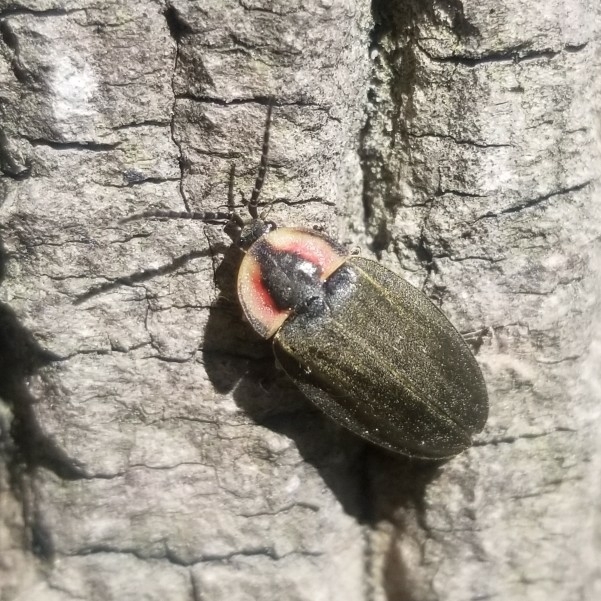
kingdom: Animalia
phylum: Arthropoda
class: Insecta
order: Coleoptera
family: Lampyridae
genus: Photinus
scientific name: Photinus corrusca
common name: Winter firefly
